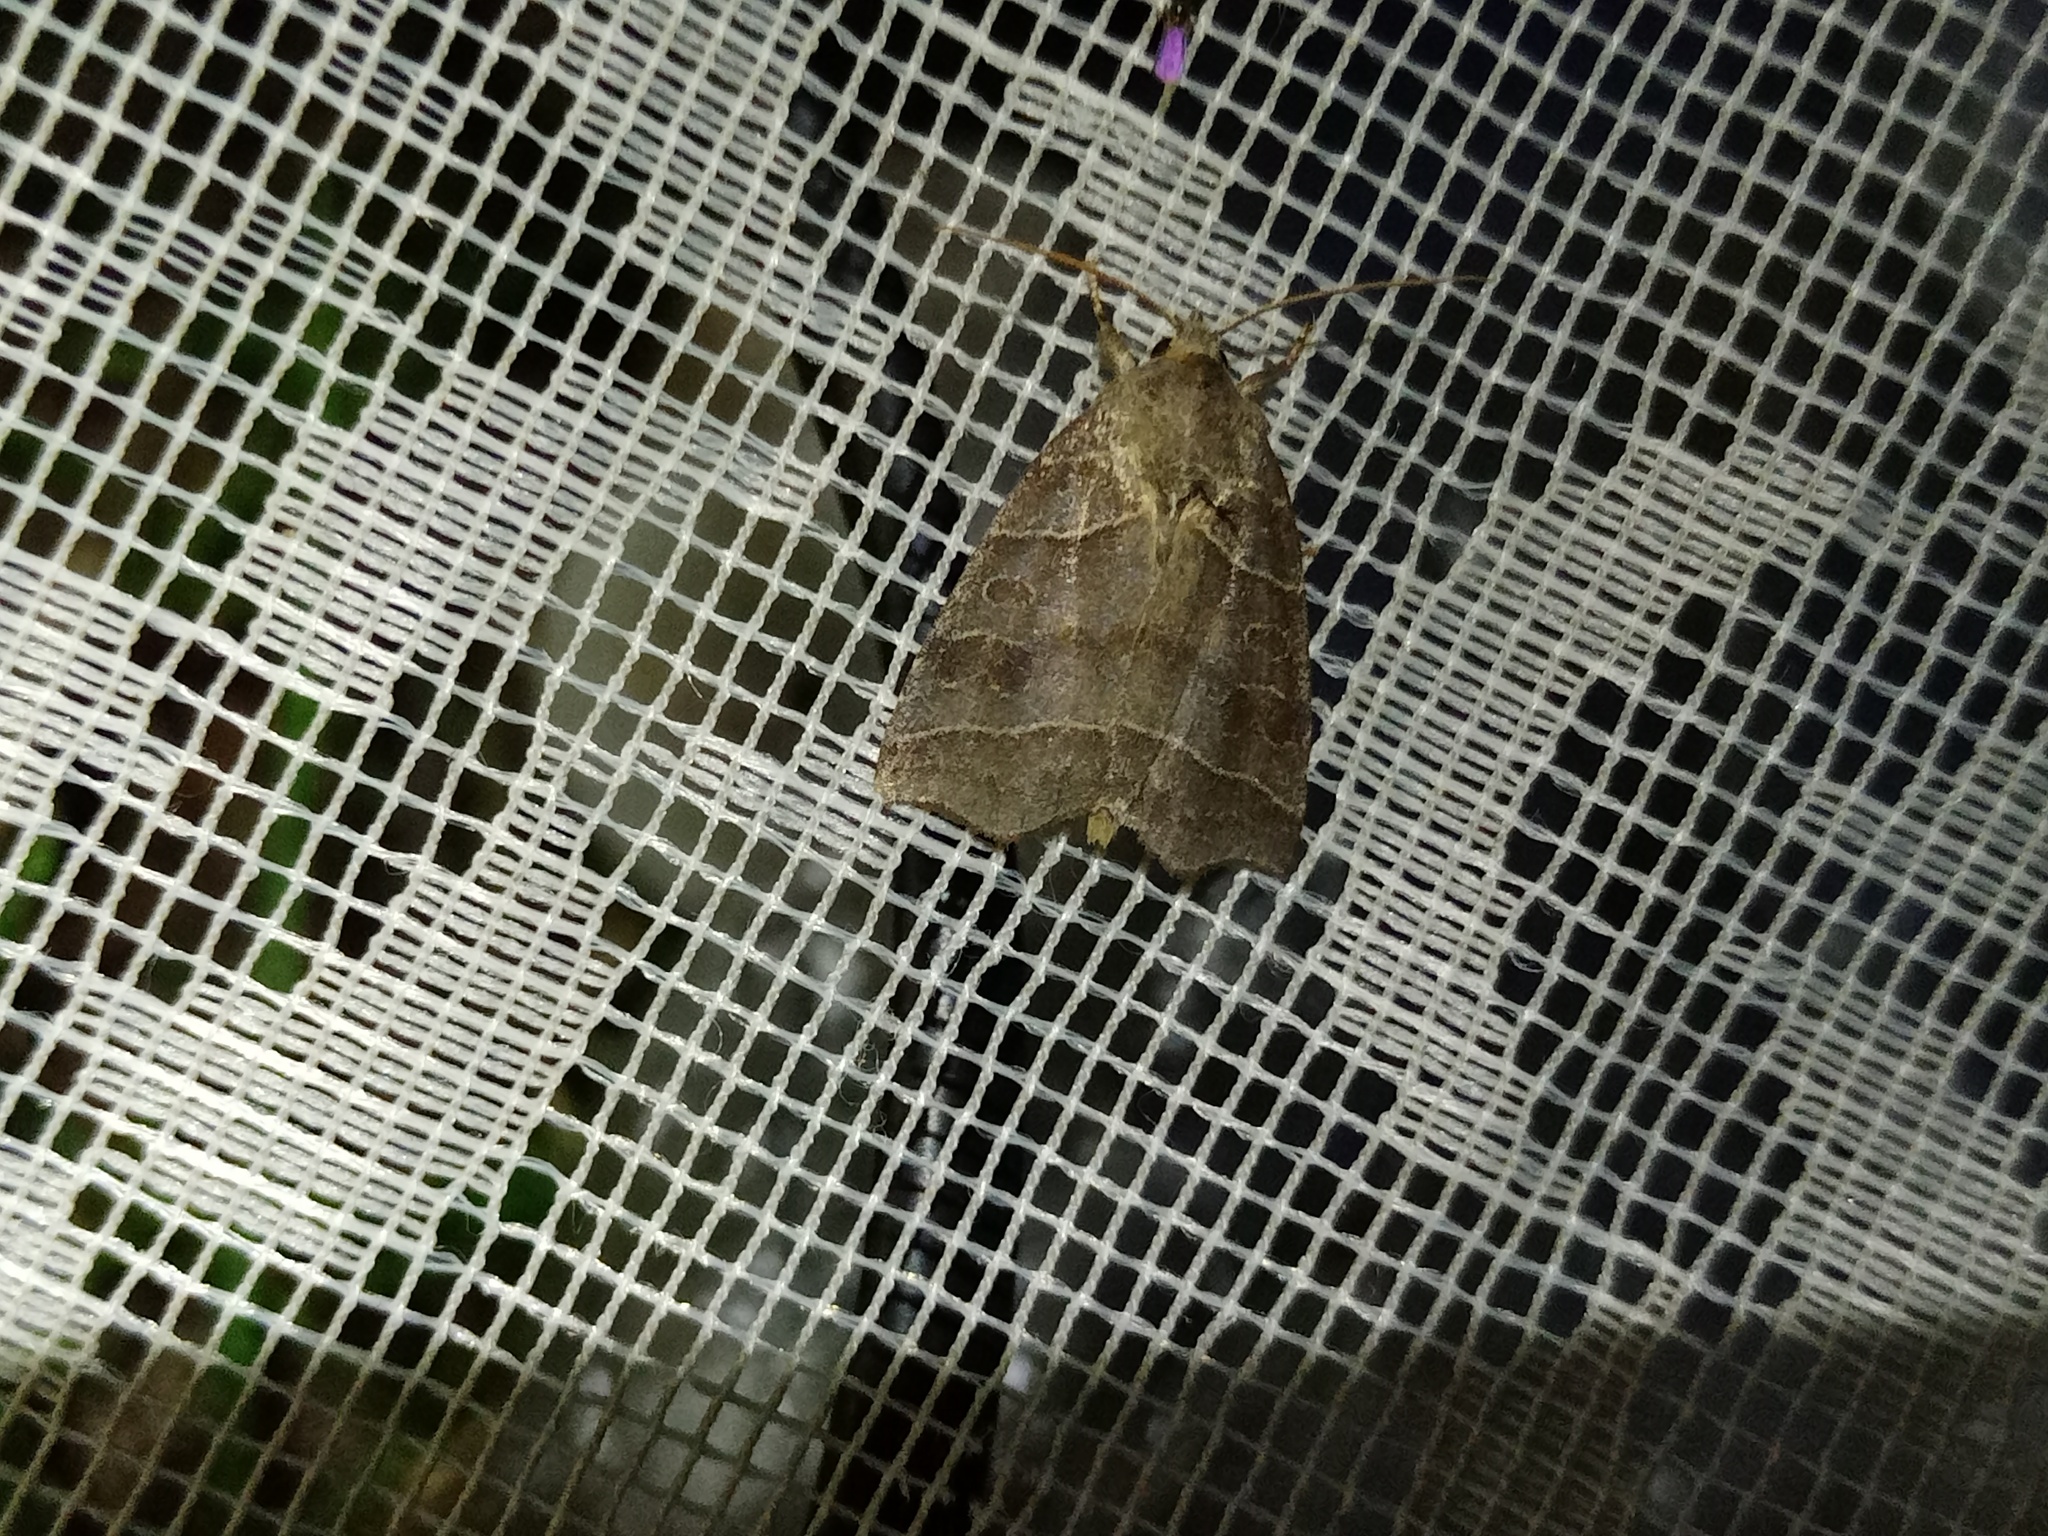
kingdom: Animalia
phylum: Arthropoda
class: Insecta
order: Lepidoptera
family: Noctuidae
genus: Ipimorpha
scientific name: Ipimorpha retusa
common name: Double kidney
